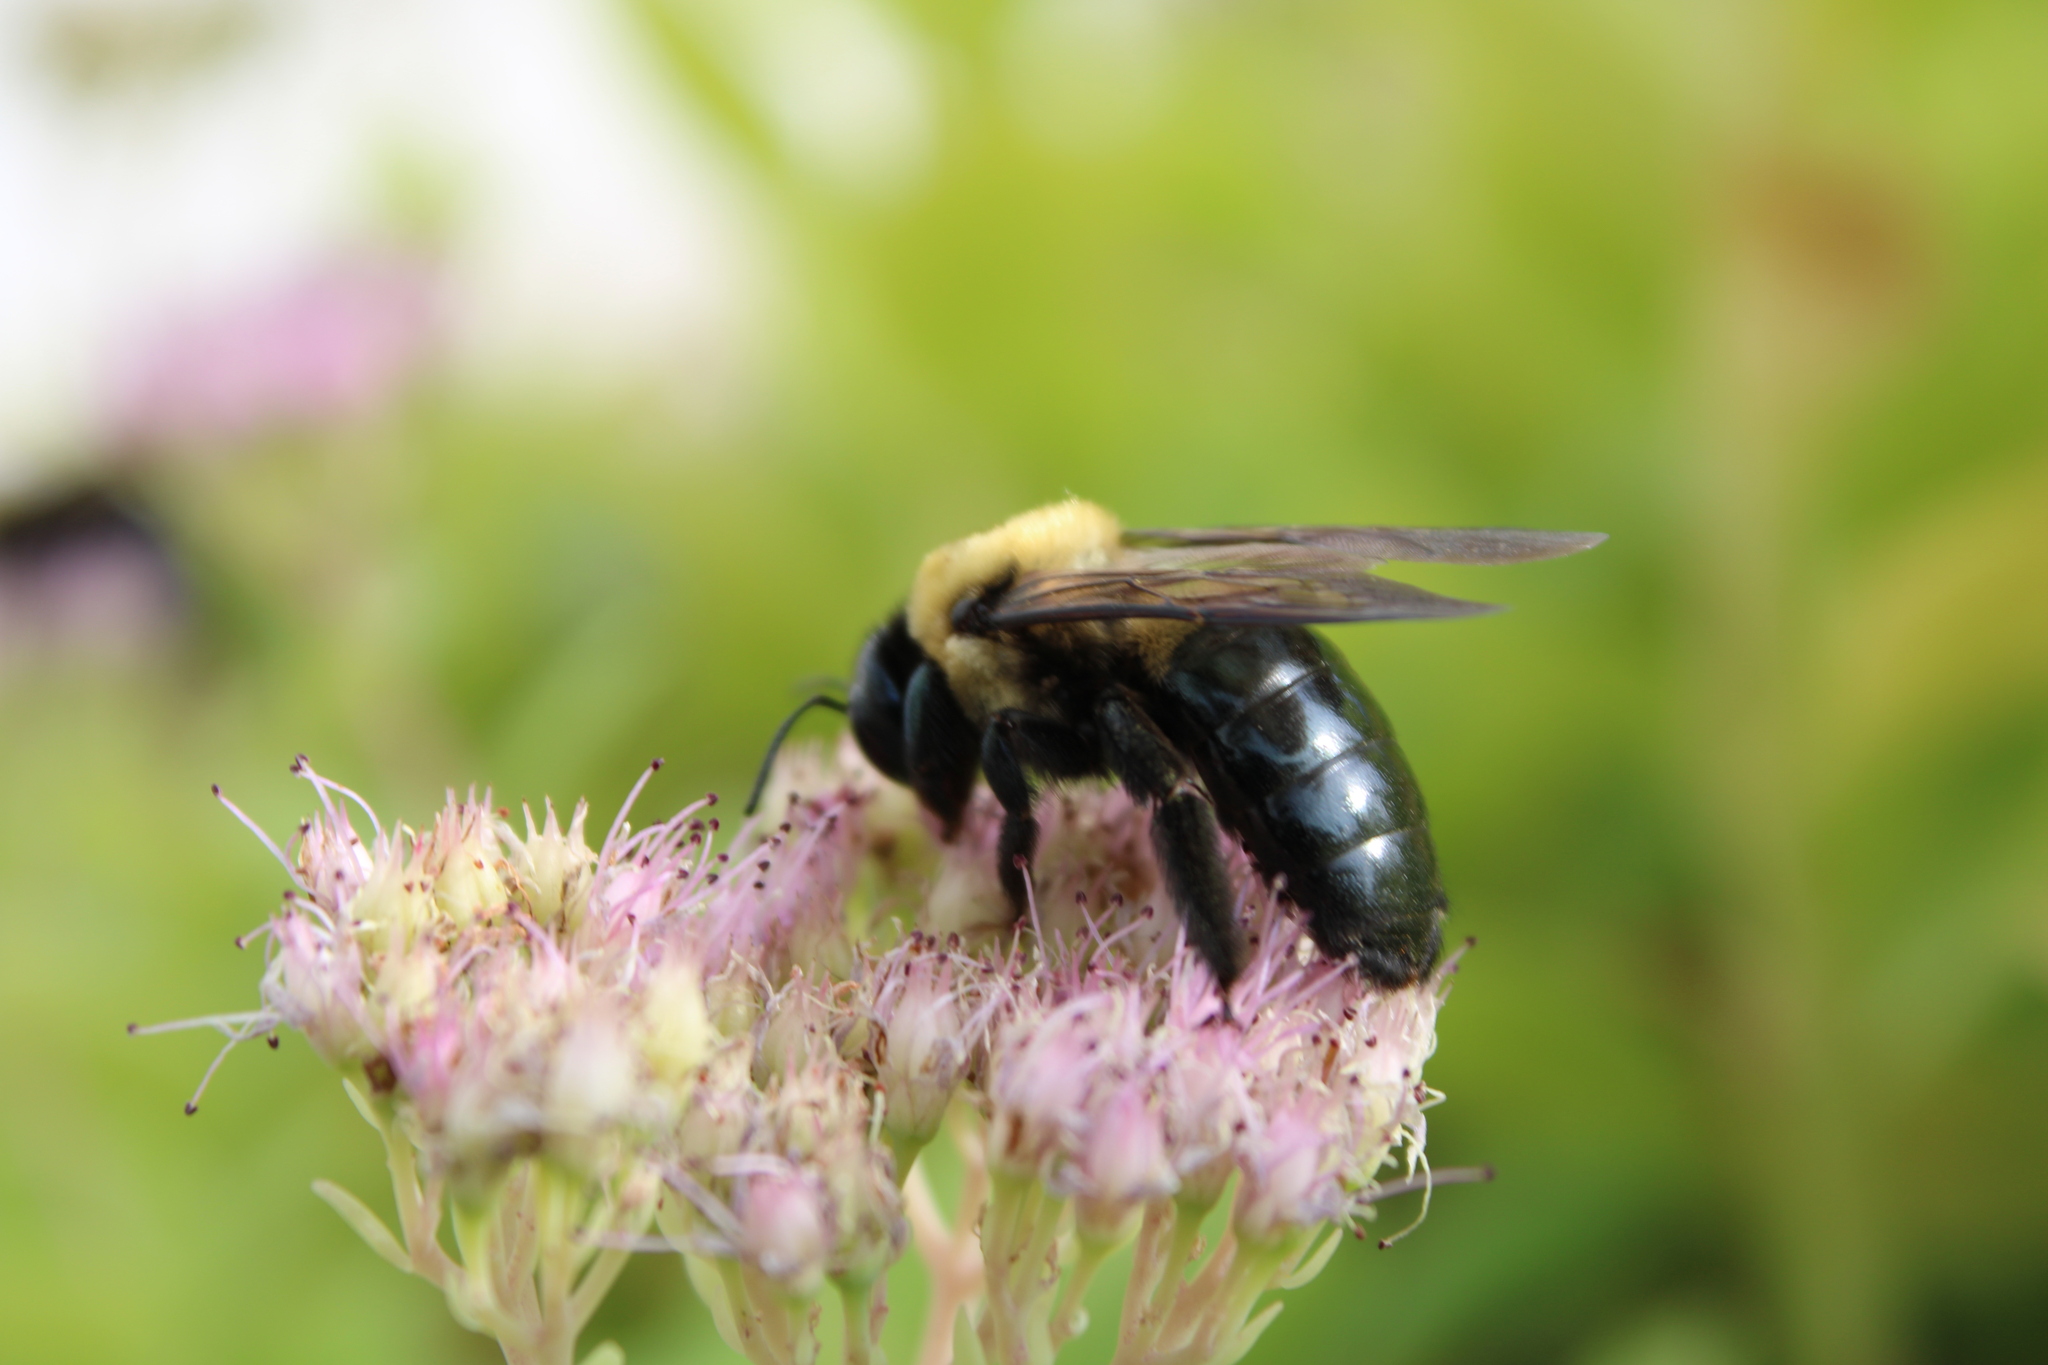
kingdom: Animalia
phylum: Arthropoda
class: Insecta
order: Hymenoptera
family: Apidae
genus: Xylocopa
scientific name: Xylocopa virginica
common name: Carpenter bee
